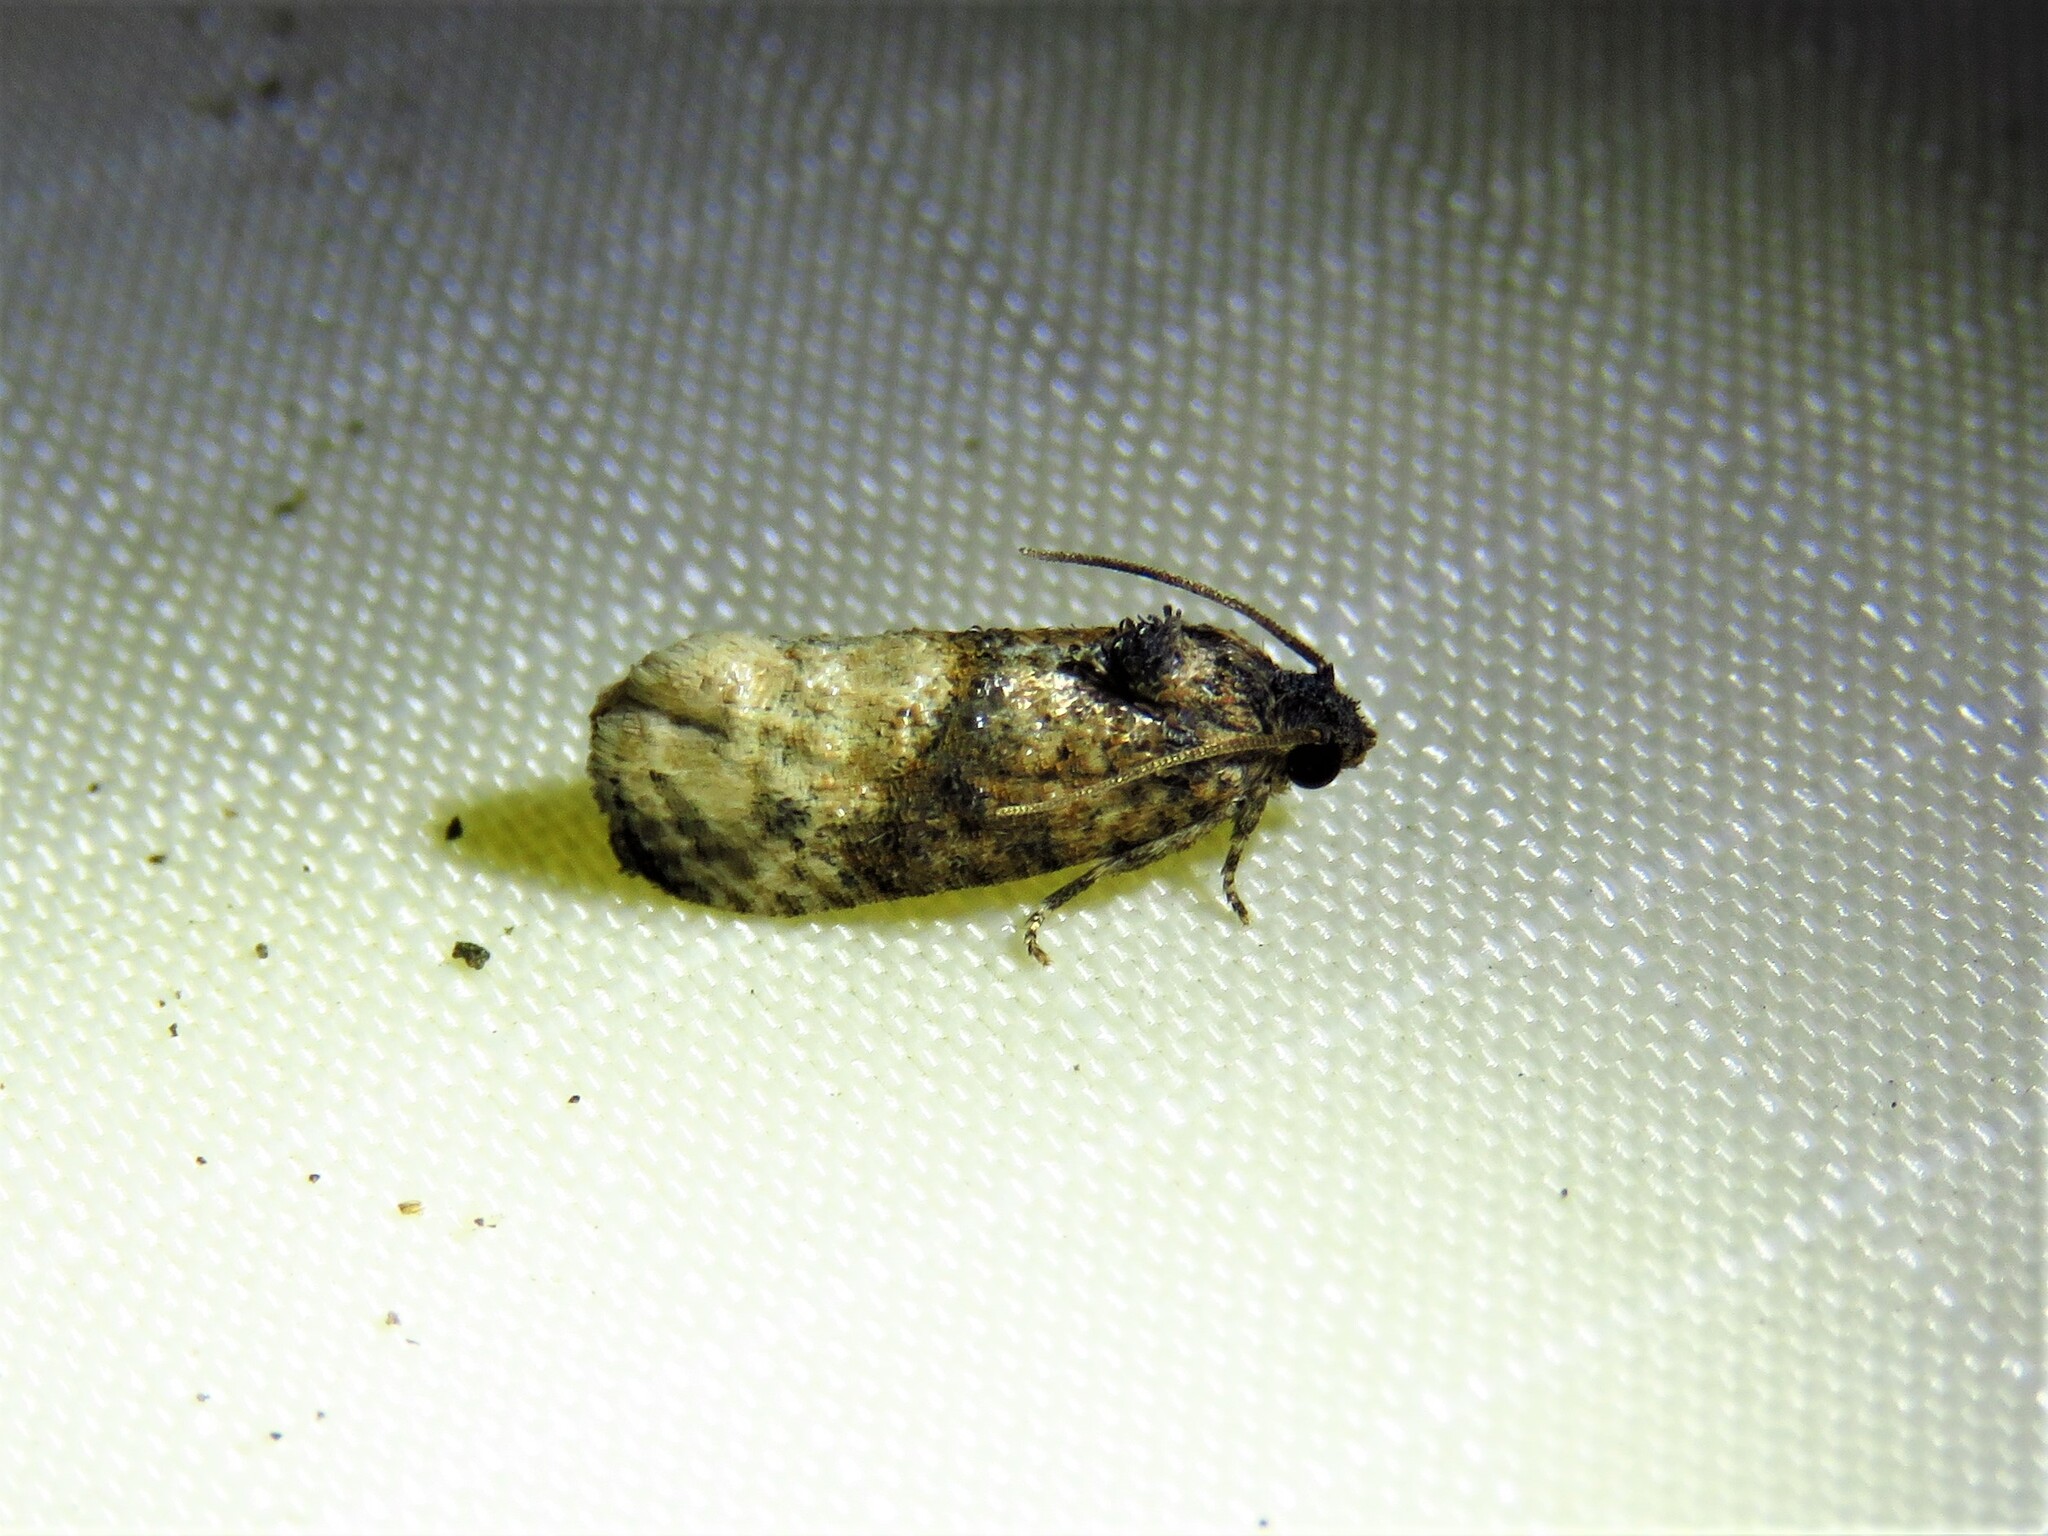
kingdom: Animalia
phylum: Arthropoda
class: Insecta
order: Lepidoptera
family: Tortricidae
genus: Ecdytolopha
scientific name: Ecdytolopha mana
